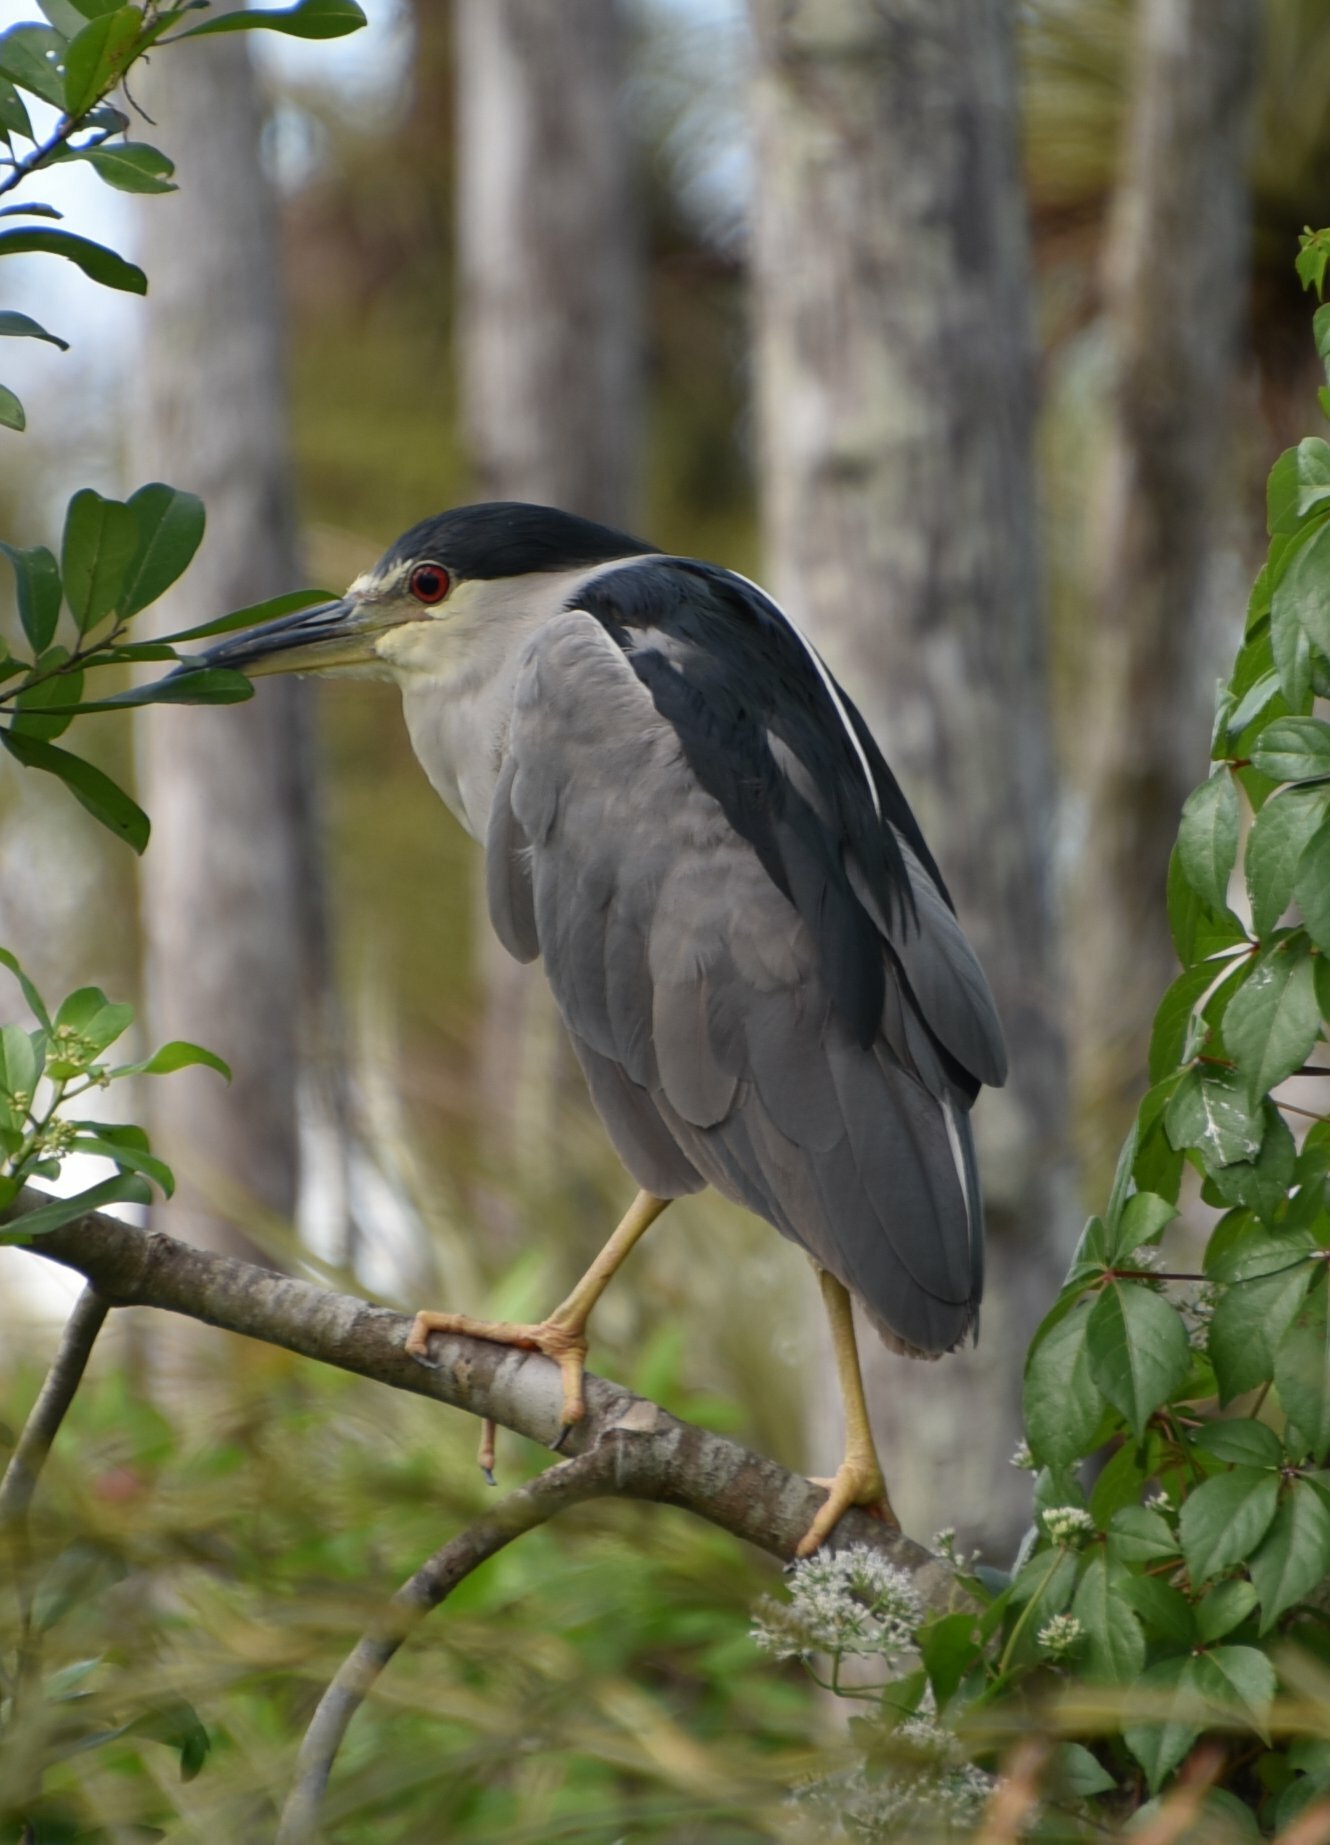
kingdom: Animalia
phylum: Chordata
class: Aves
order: Pelecaniformes
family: Ardeidae
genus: Nycticorax
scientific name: Nycticorax nycticorax
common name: Black-crowned night heron
